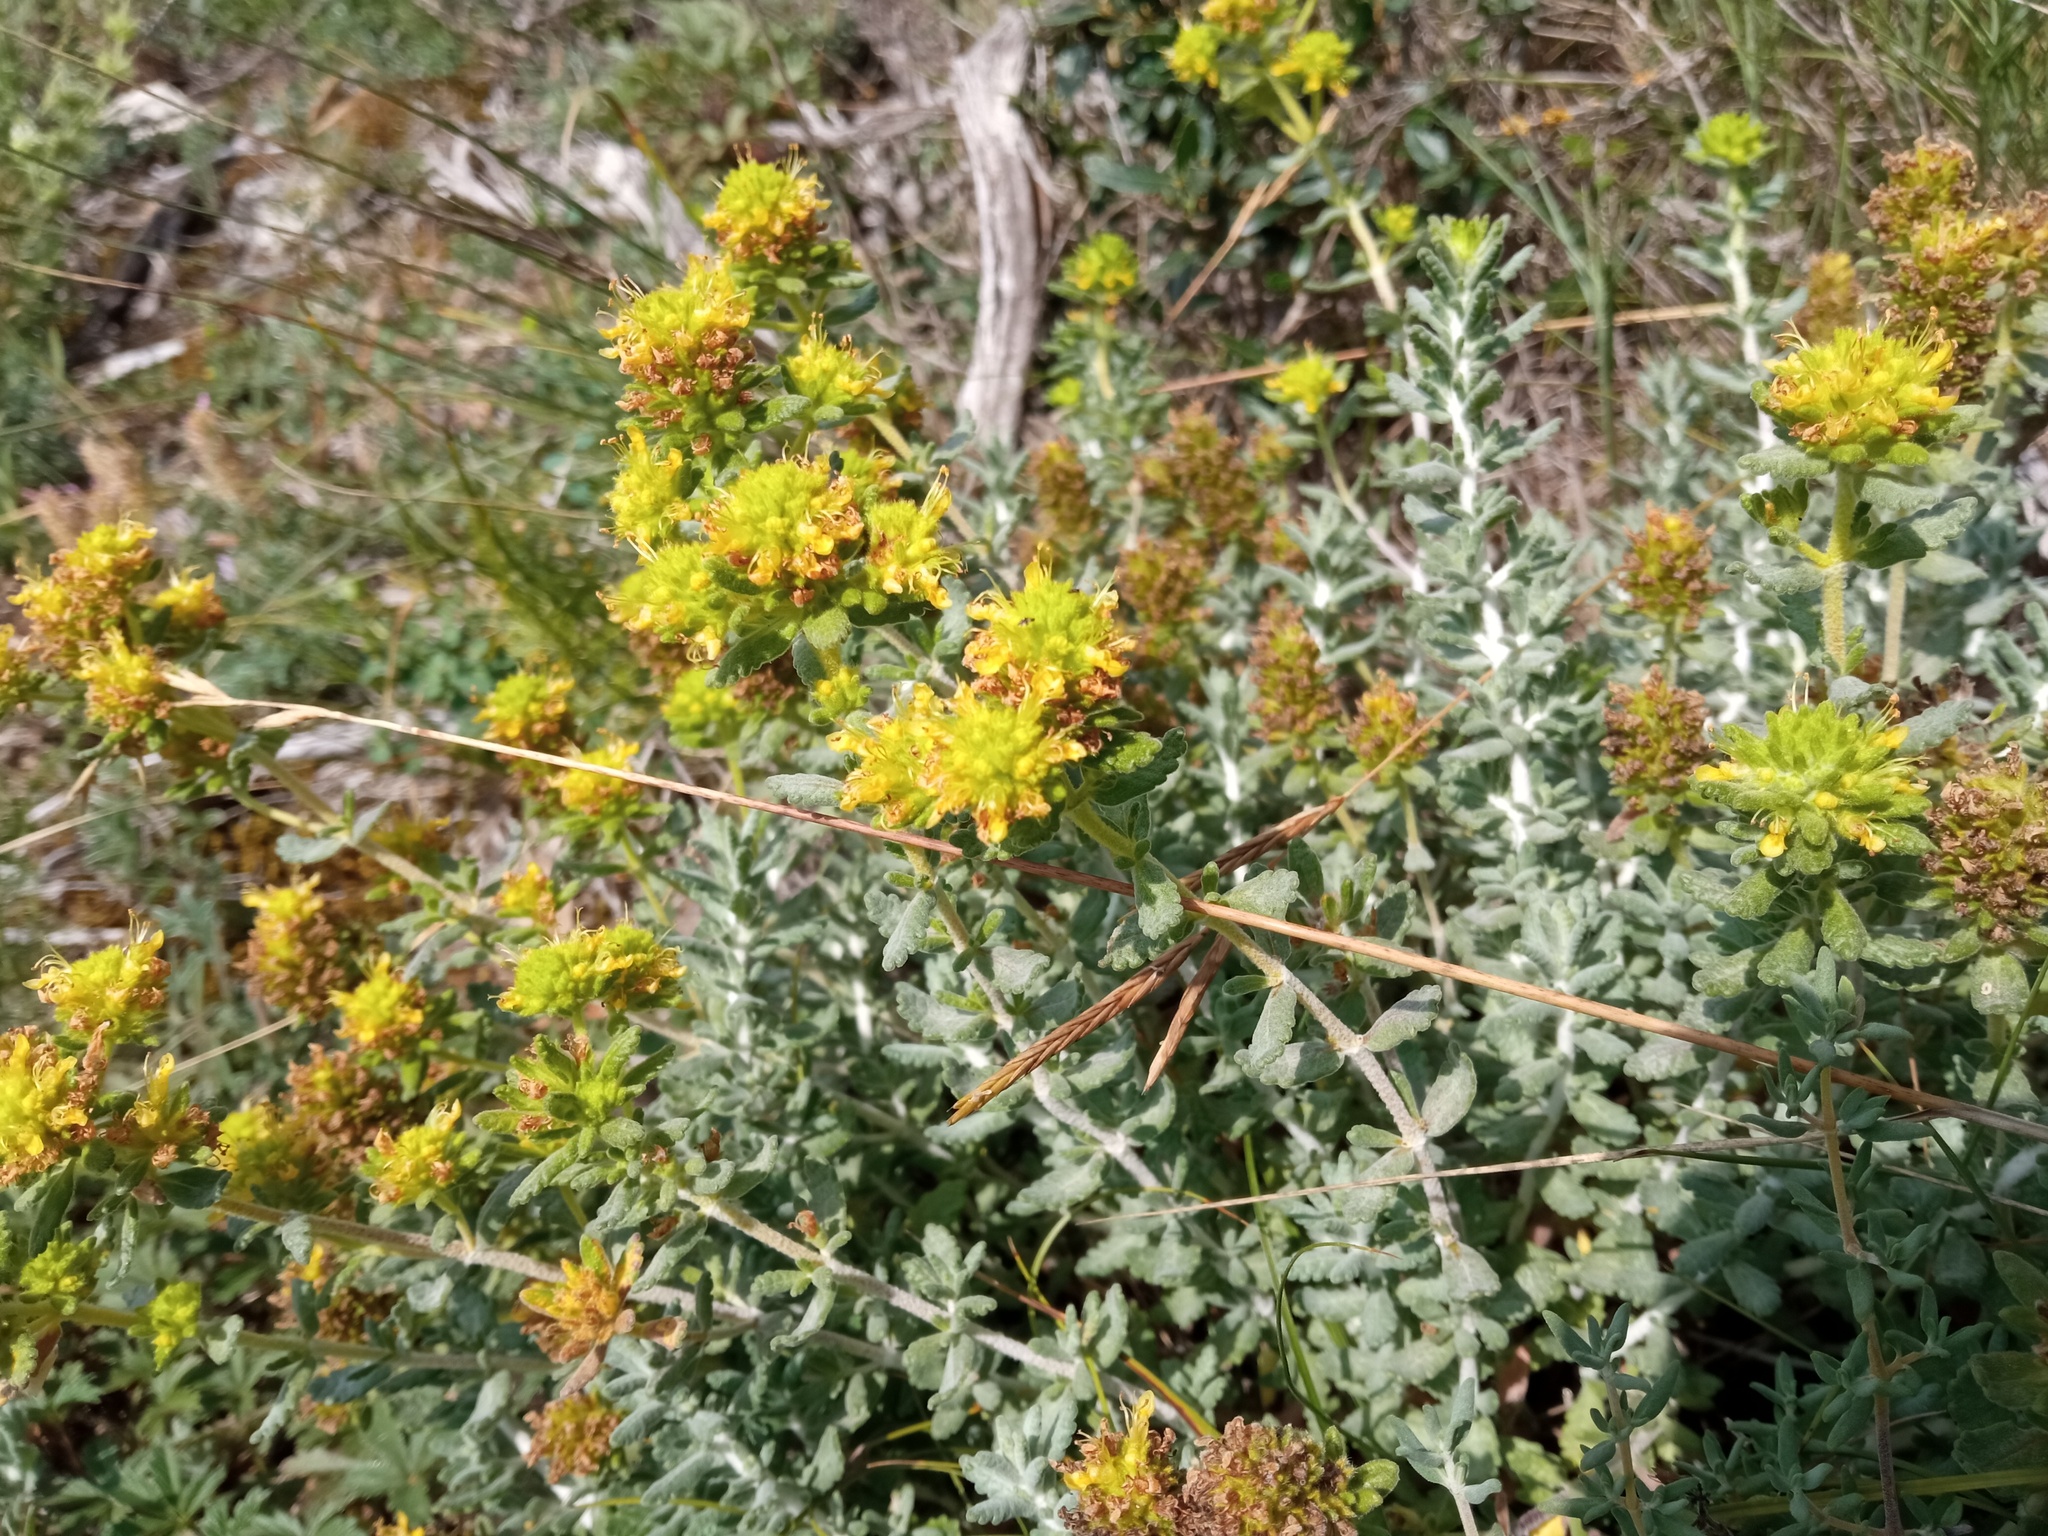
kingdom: Plantae
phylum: Tracheophyta
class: Magnoliopsida
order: Lamiales
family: Lamiaceae
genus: Teucrium
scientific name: Teucrium aureum
